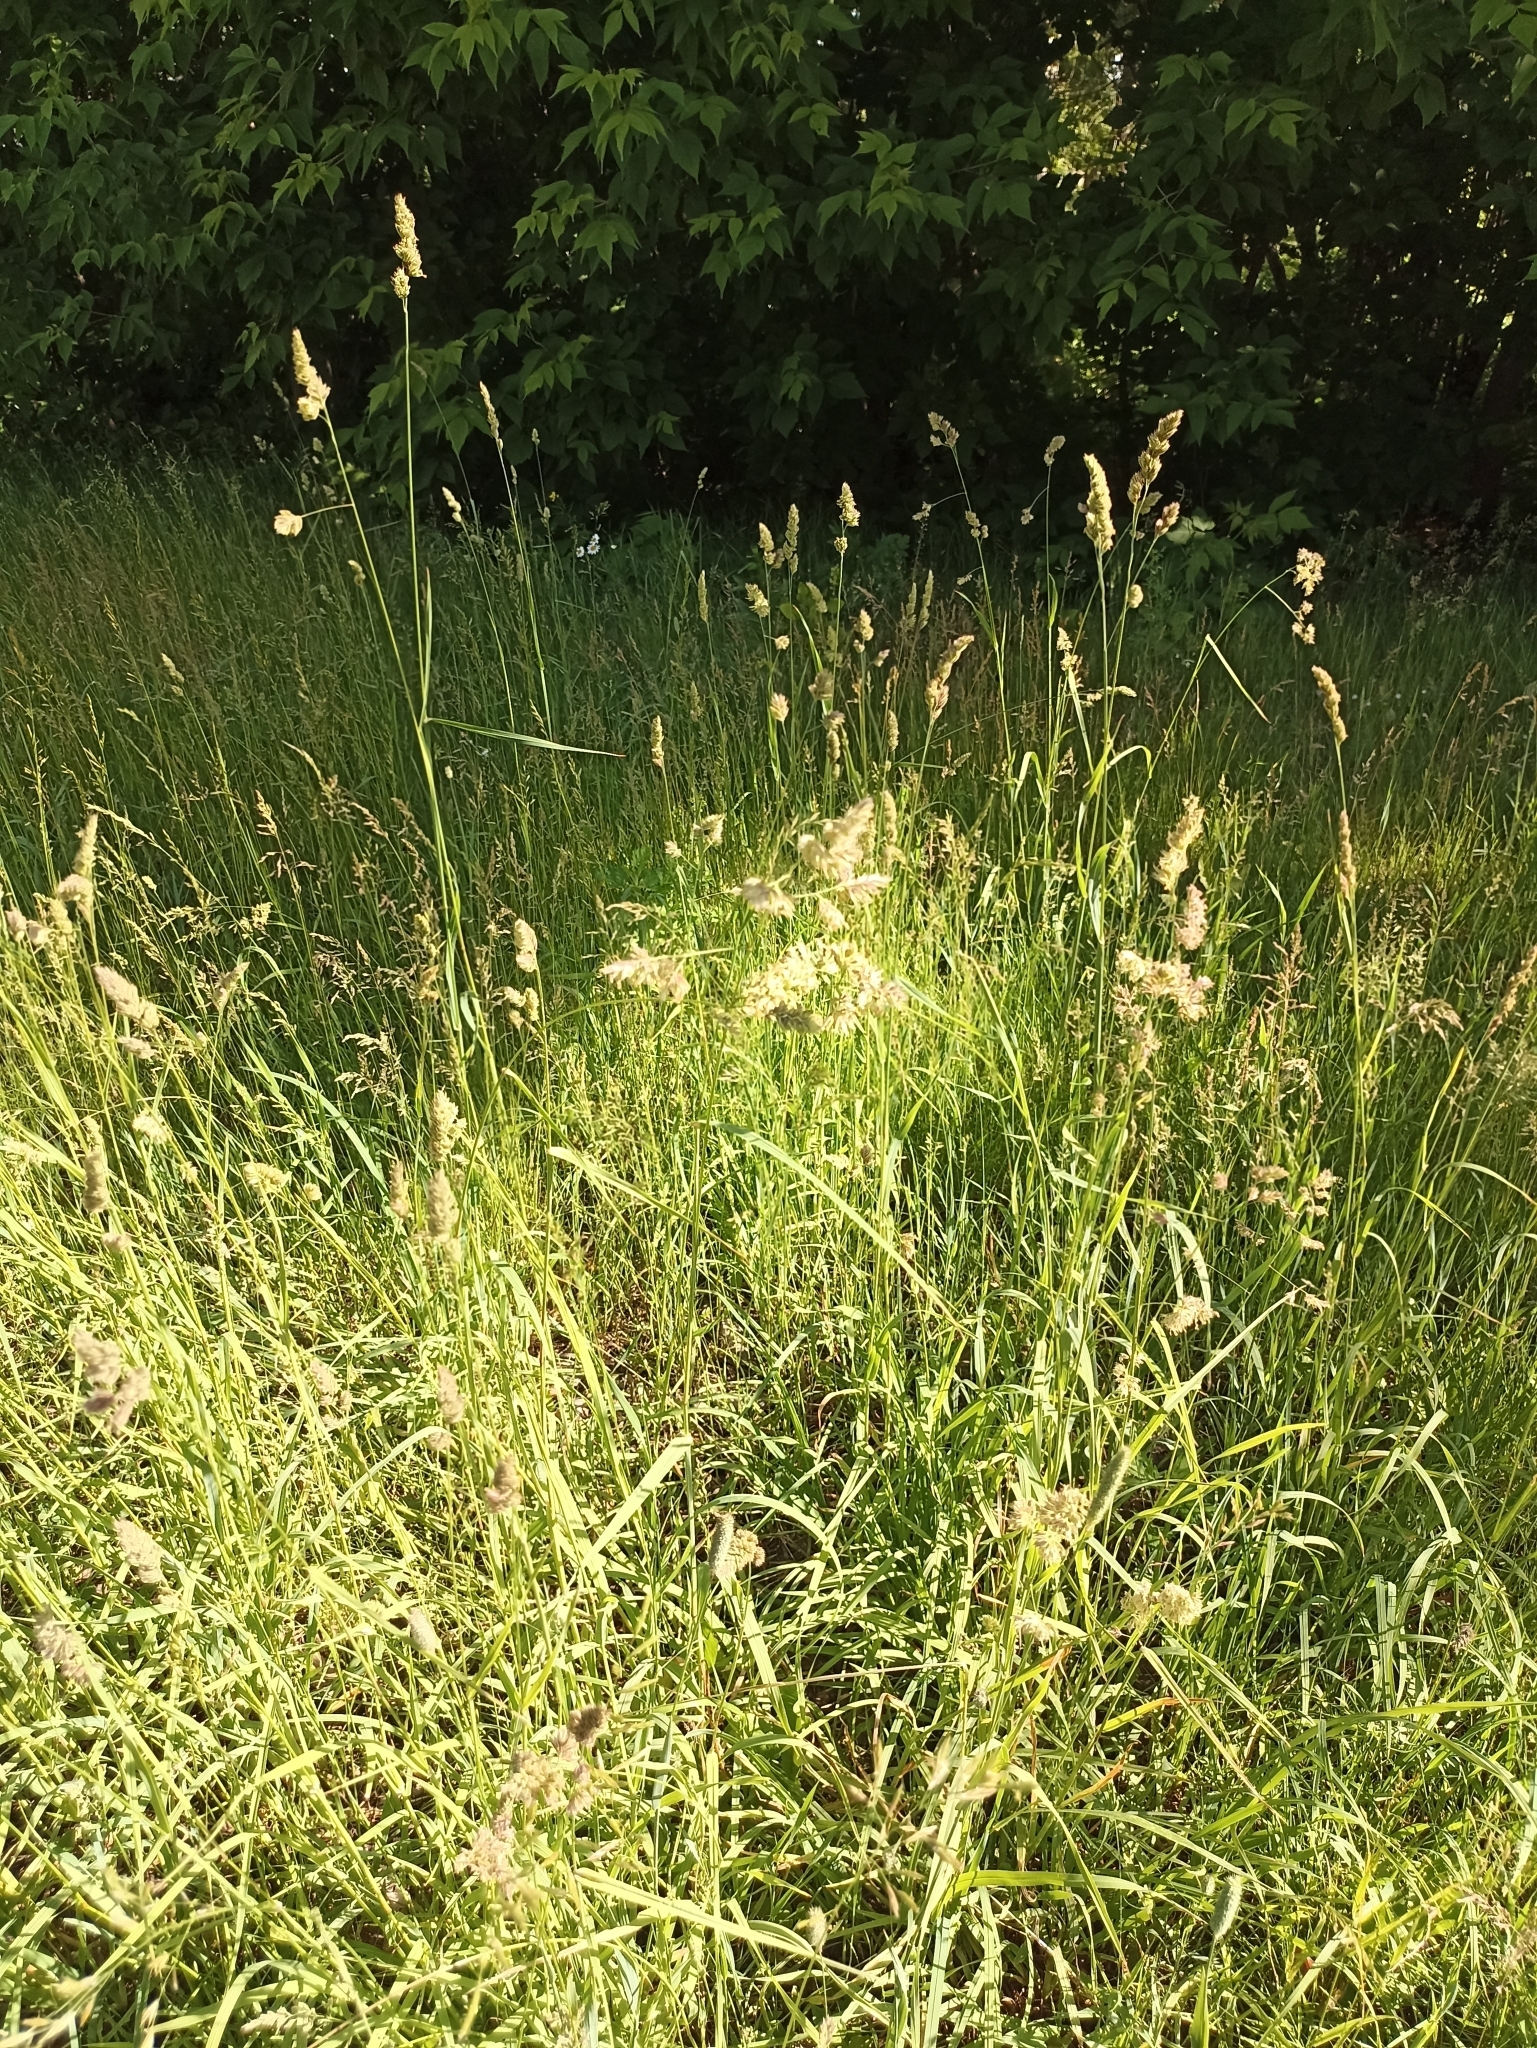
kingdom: Plantae
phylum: Tracheophyta
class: Liliopsida
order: Poales
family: Poaceae
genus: Dactylis
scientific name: Dactylis glomerata
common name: Orchardgrass
